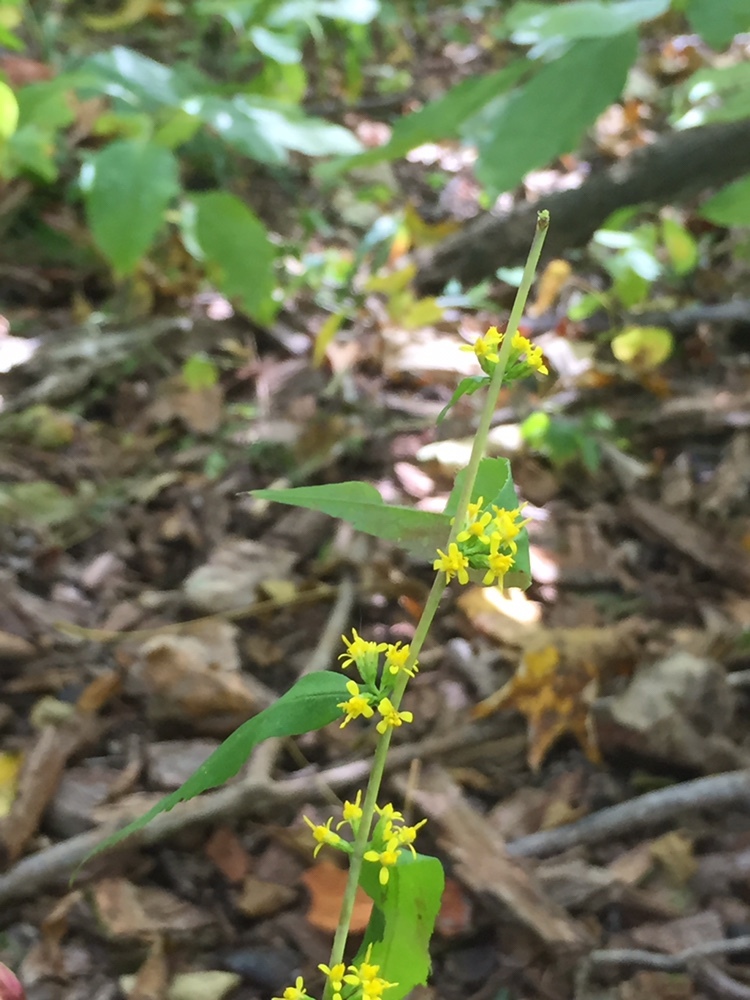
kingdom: Plantae
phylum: Tracheophyta
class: Magnoliopsida
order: Asterales
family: Asteraceae
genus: Solidago
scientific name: Solidago caesia
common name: Woodland goldenrod
